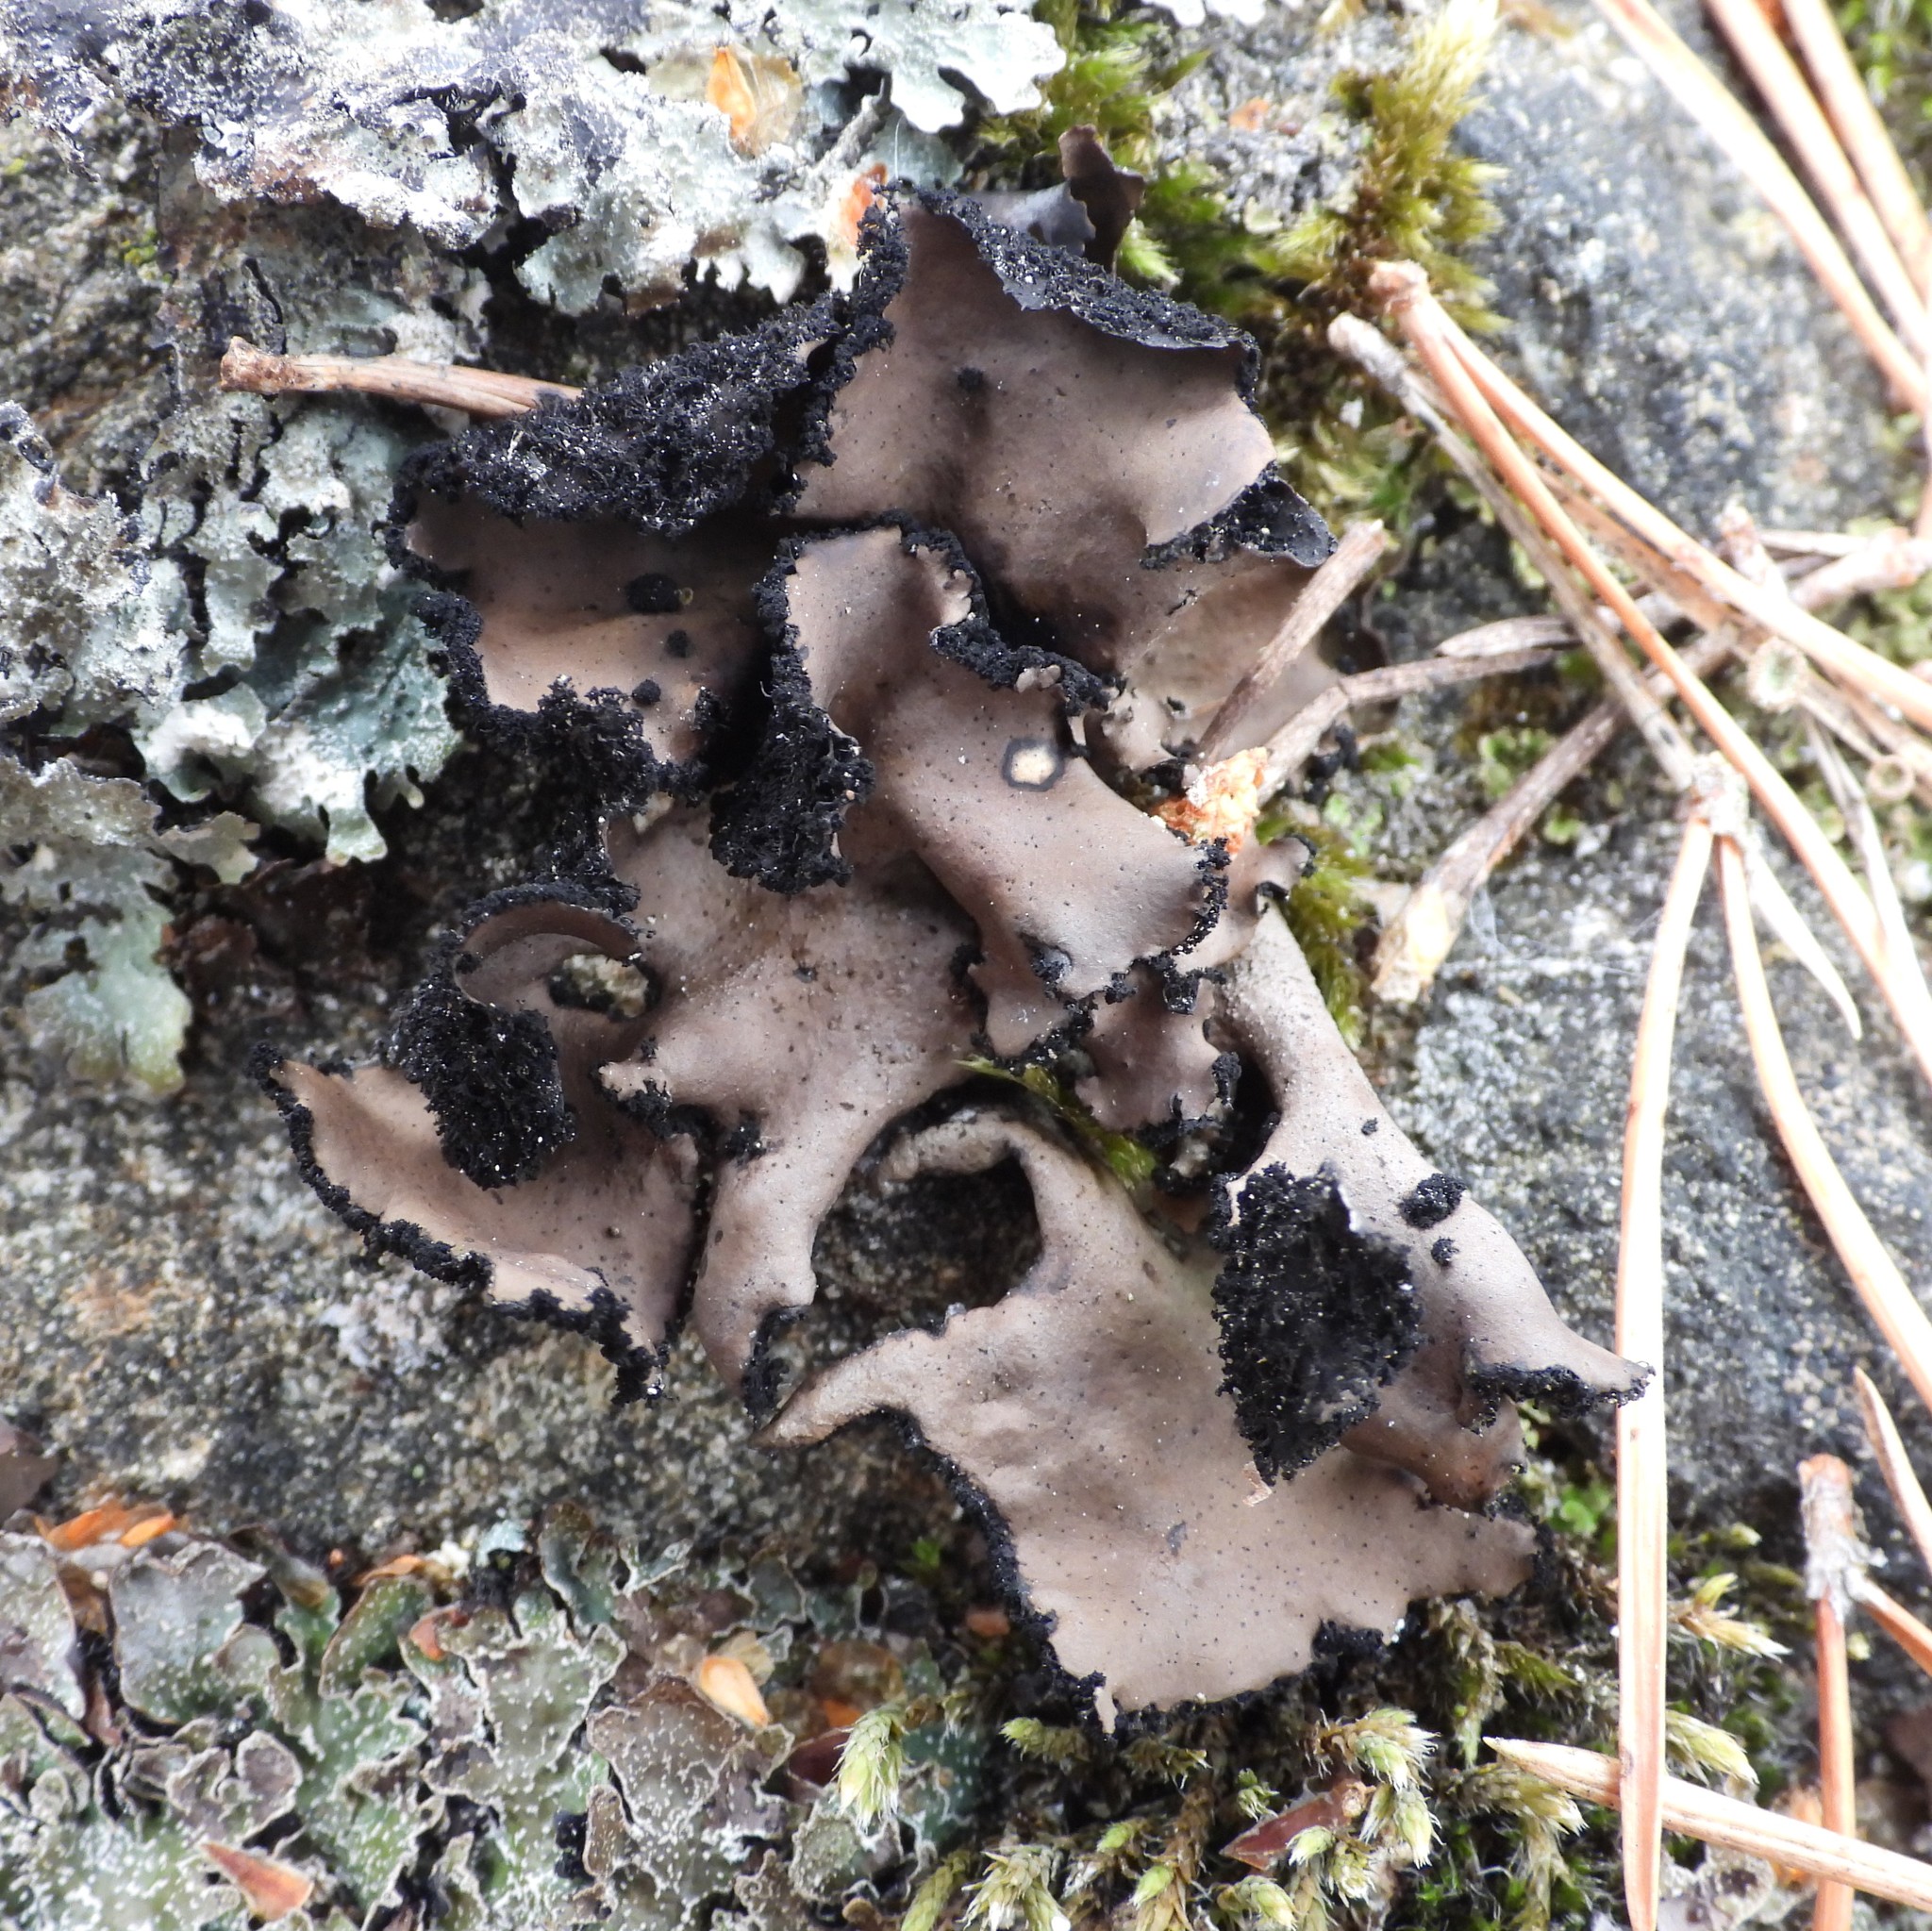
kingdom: Fungi
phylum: Ascomycota
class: Lecanoromycetes
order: Umbilicariales
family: Umbilicariaceae
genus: Umbilicaria
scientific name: Umbilicaria polyrrhiza
